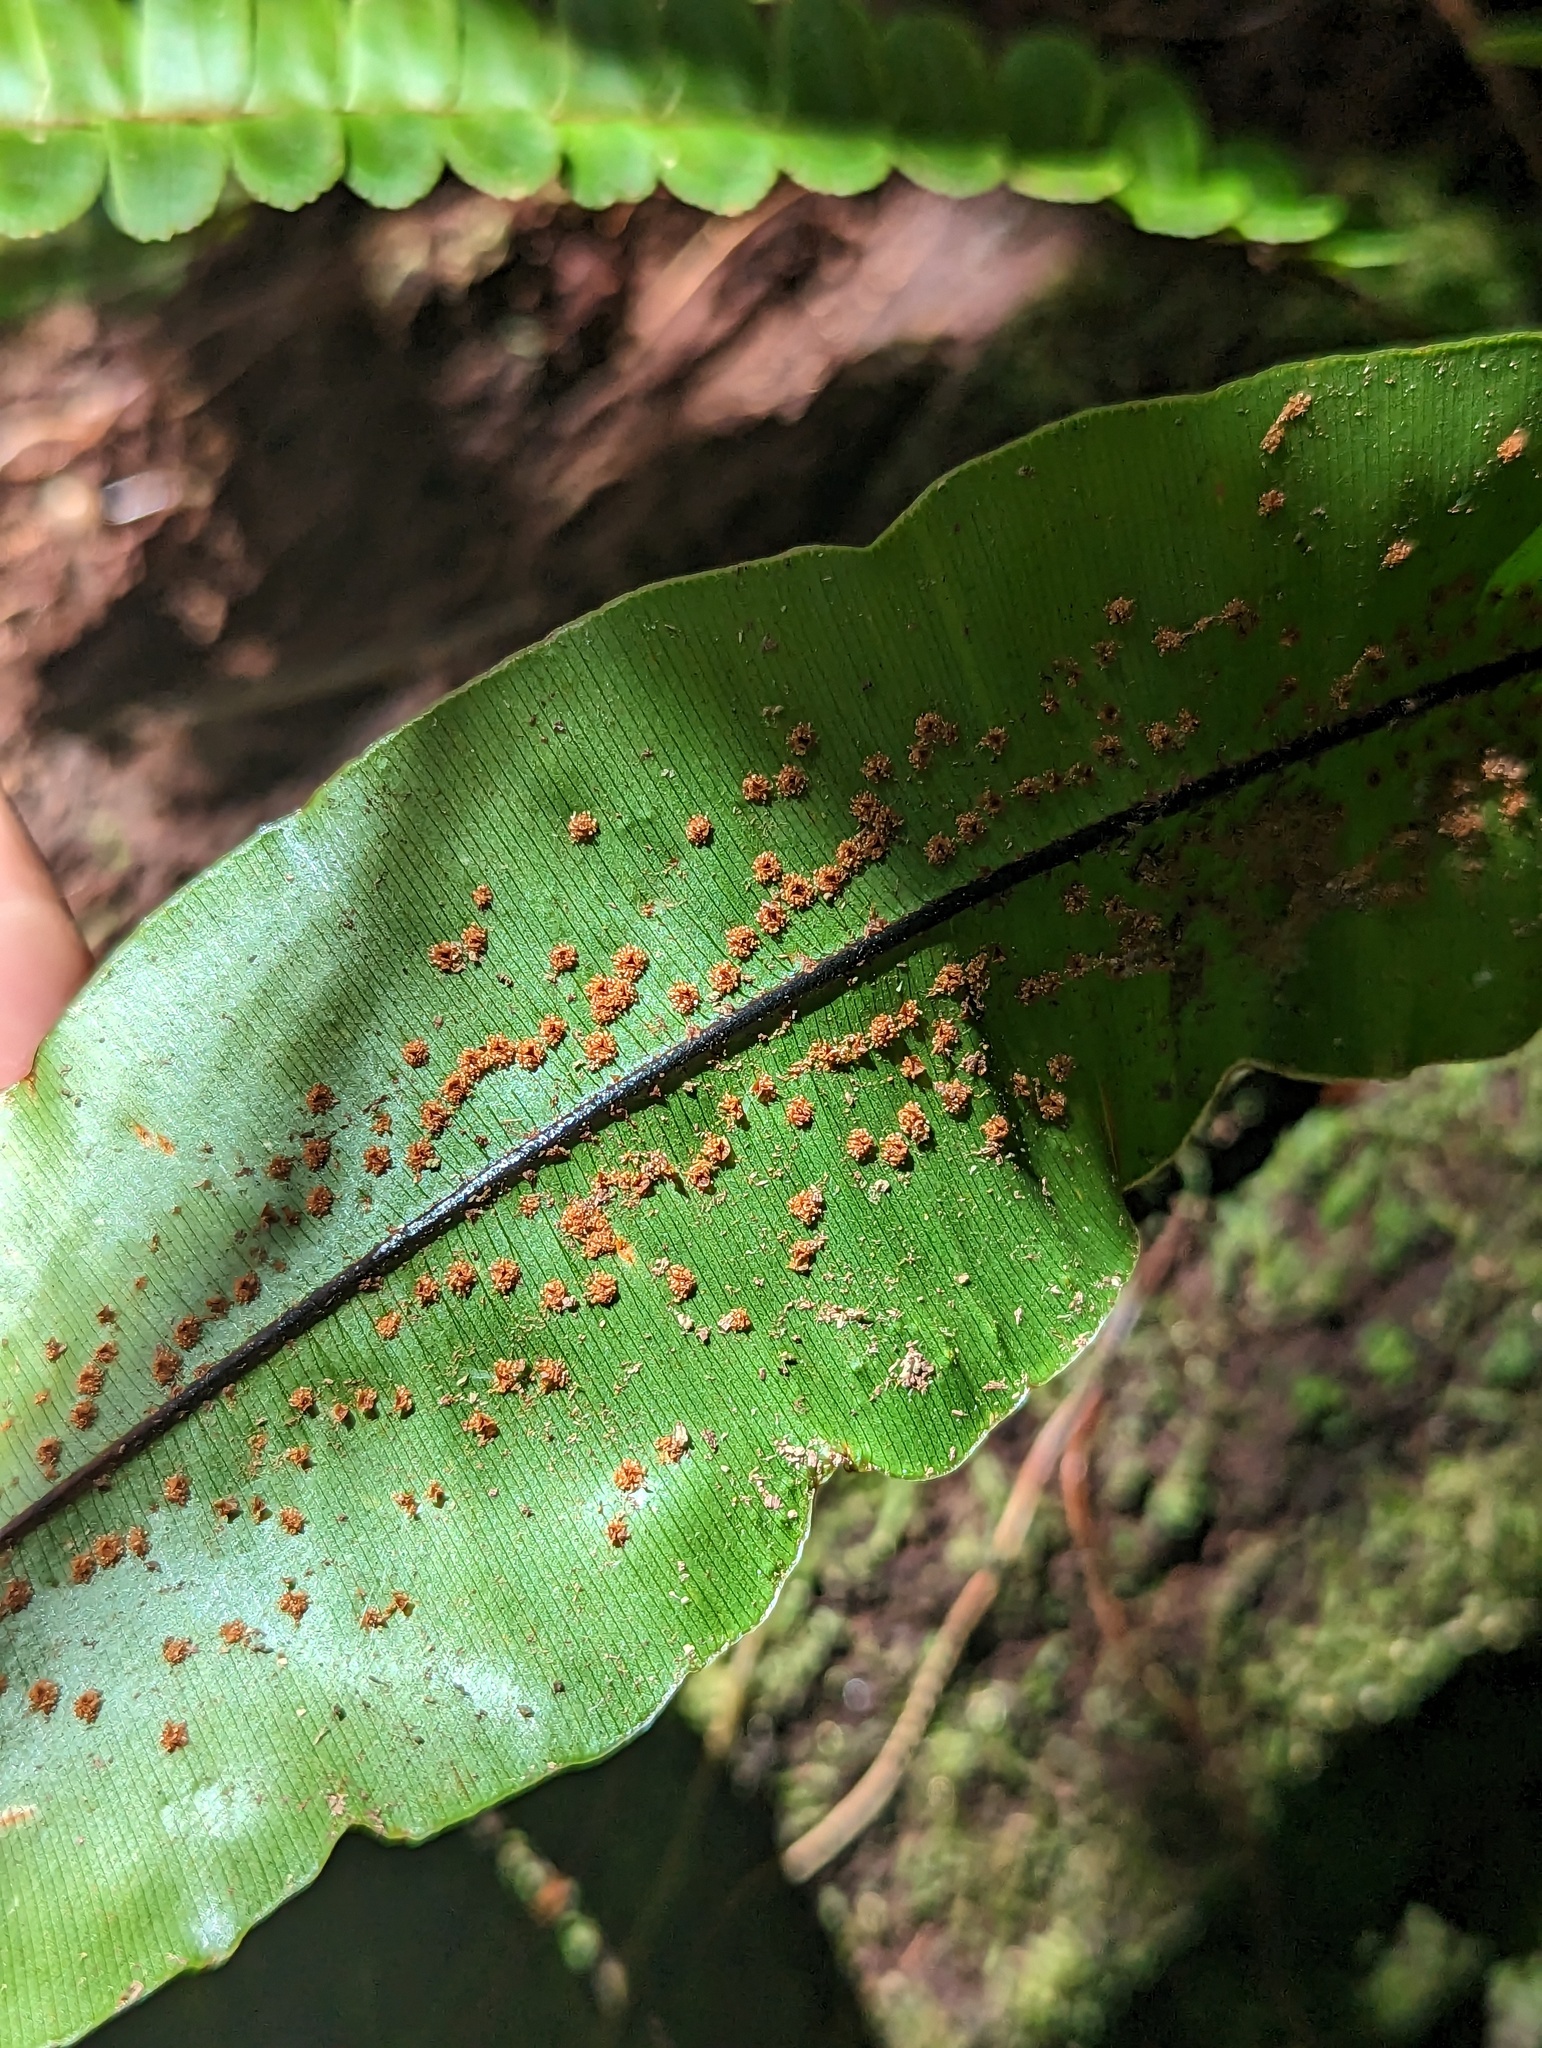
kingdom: Plantae
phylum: Tracheophyta
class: Polypodiopsida
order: Polypodiales
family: Oleandraceae
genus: Oleandra
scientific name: Oleandra articulata
